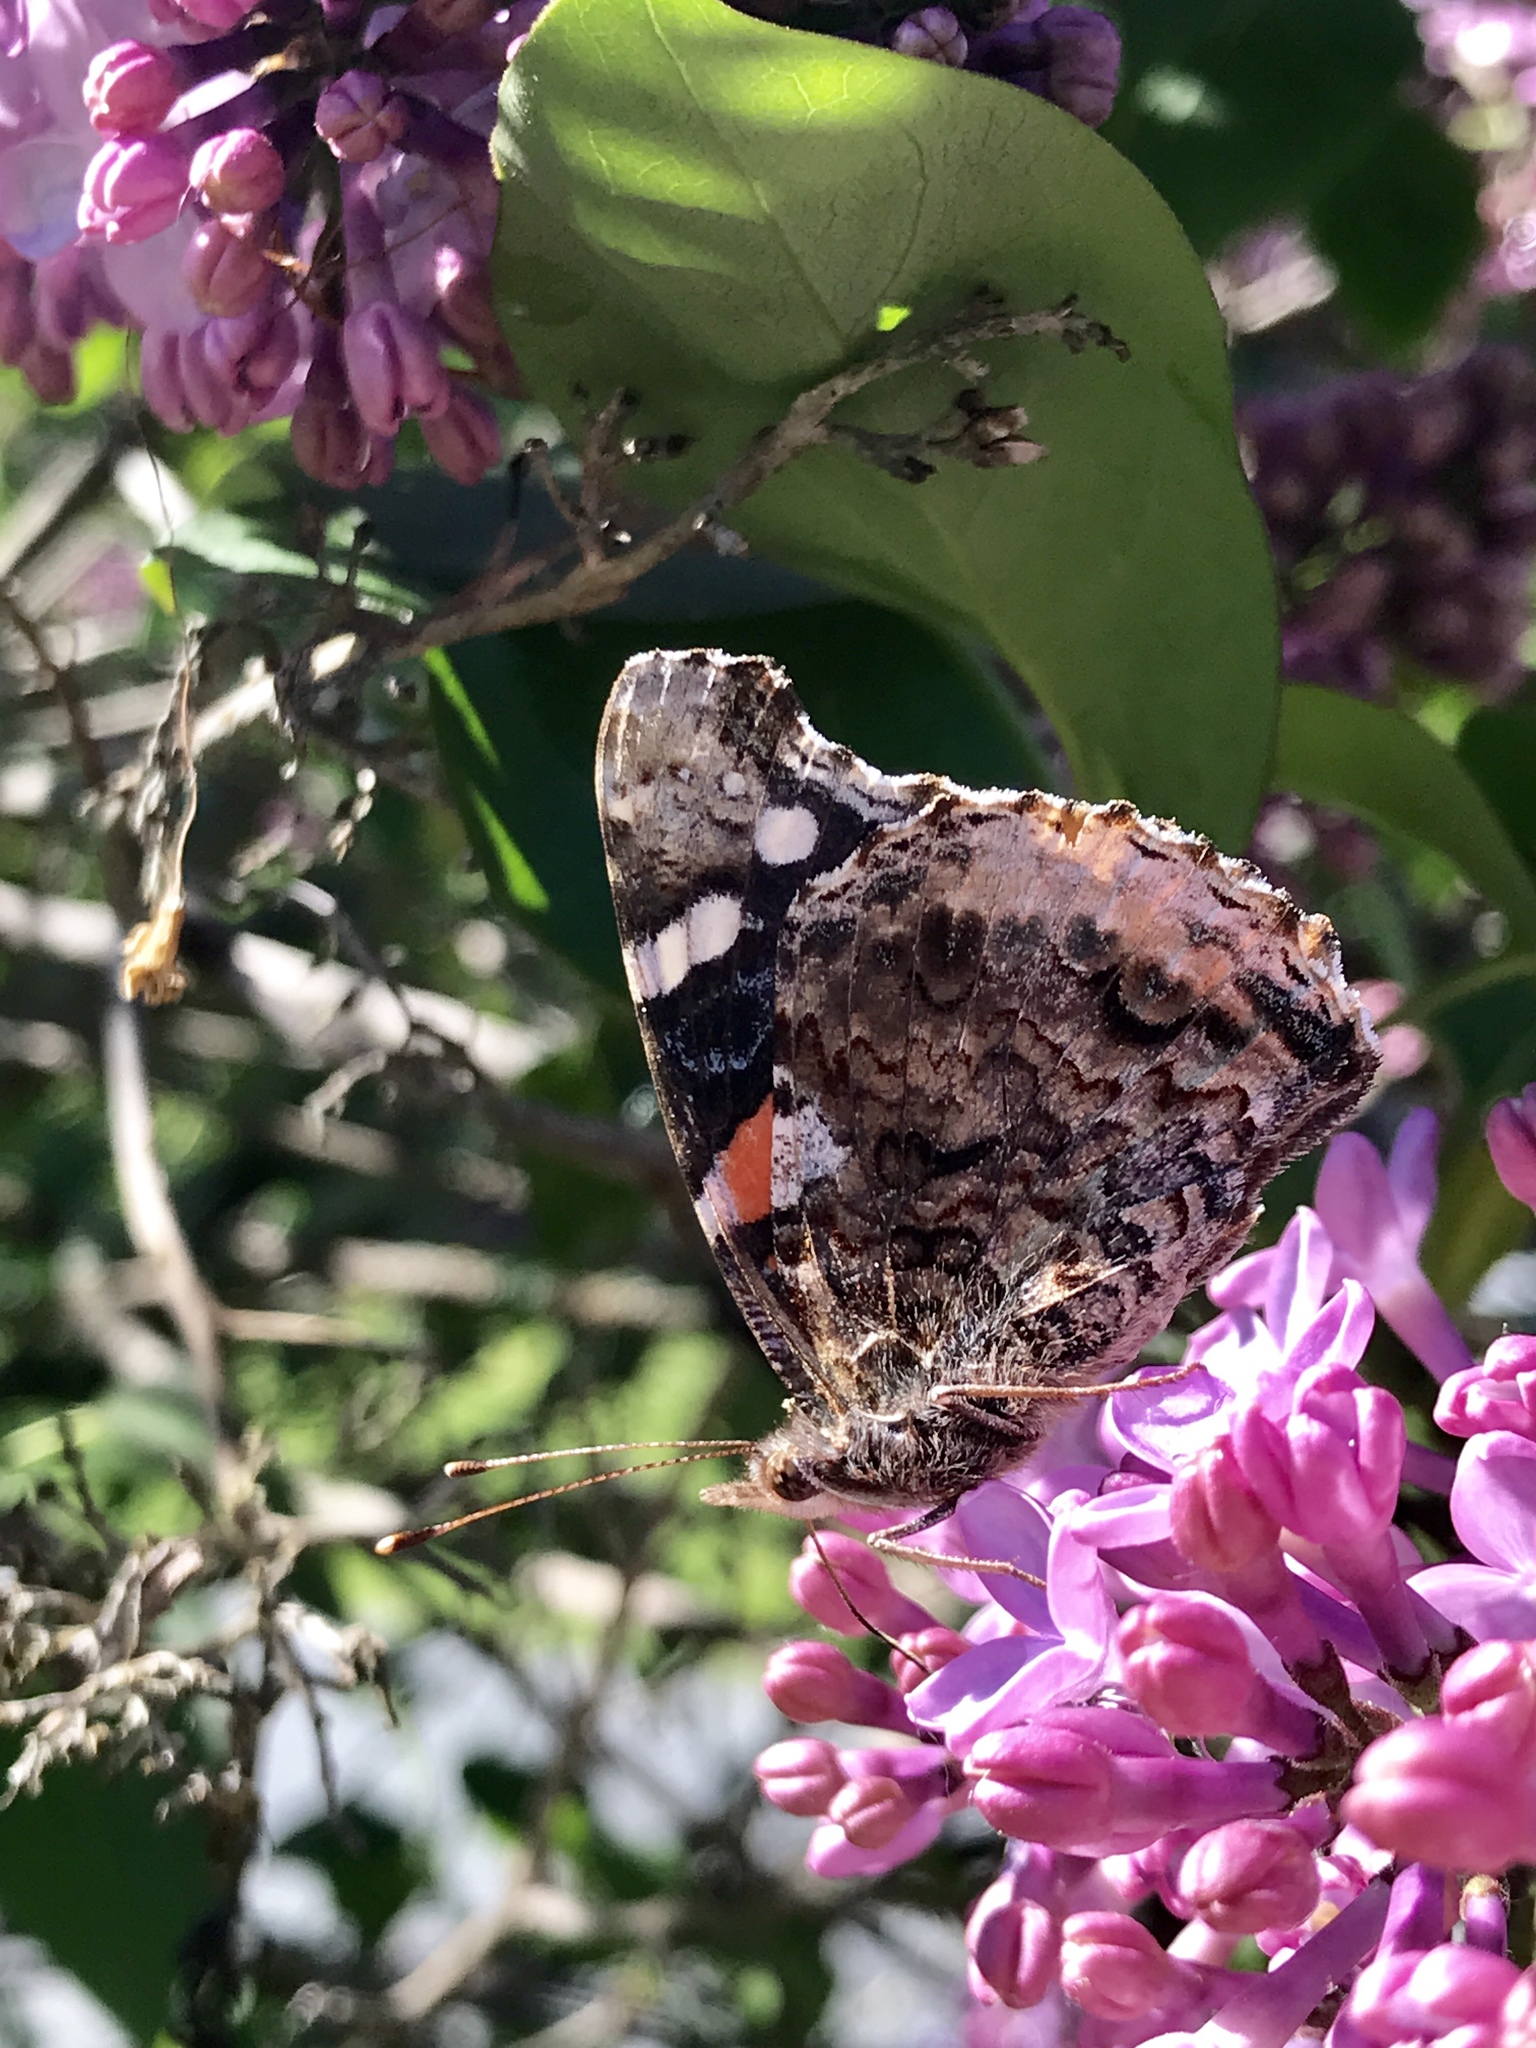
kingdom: Animalia
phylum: Arthropoda
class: Insecta
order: Lepidoptera
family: Nymphalidae
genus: Vanessa
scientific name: Vanessa atalanta
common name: Red admiral
